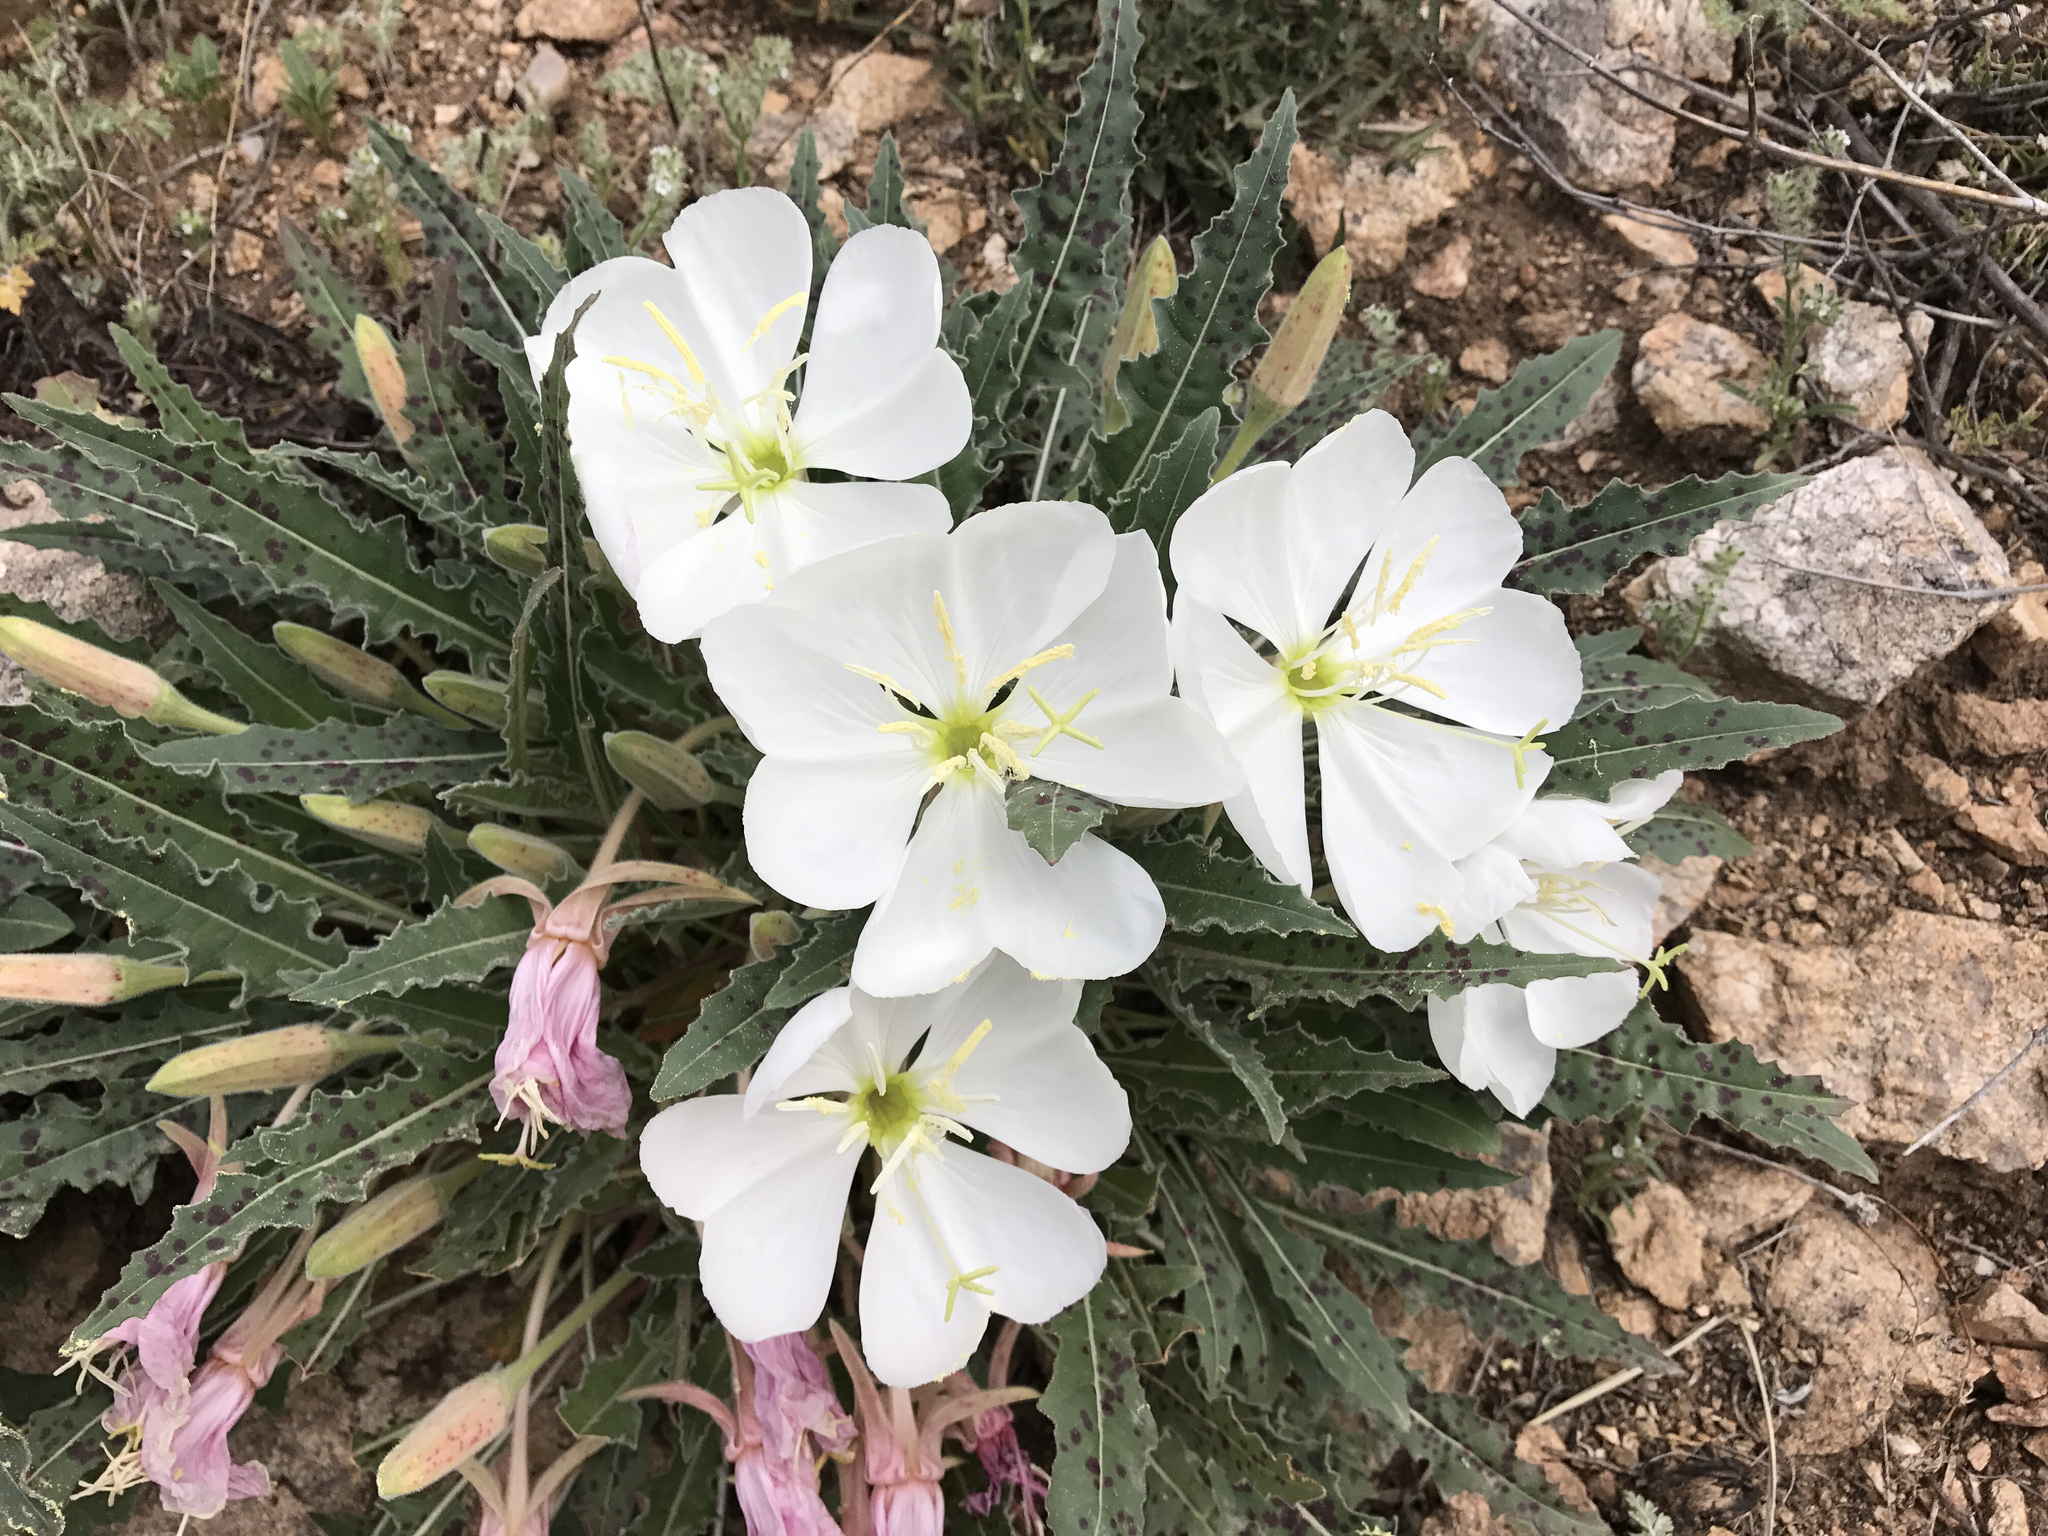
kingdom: Plantae
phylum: Tracheophyta
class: Magnoliopsida
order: Myrtales
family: Onagraceae
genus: Oenothera
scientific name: Oenothera cespitosa
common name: Tufted evening-primrose
